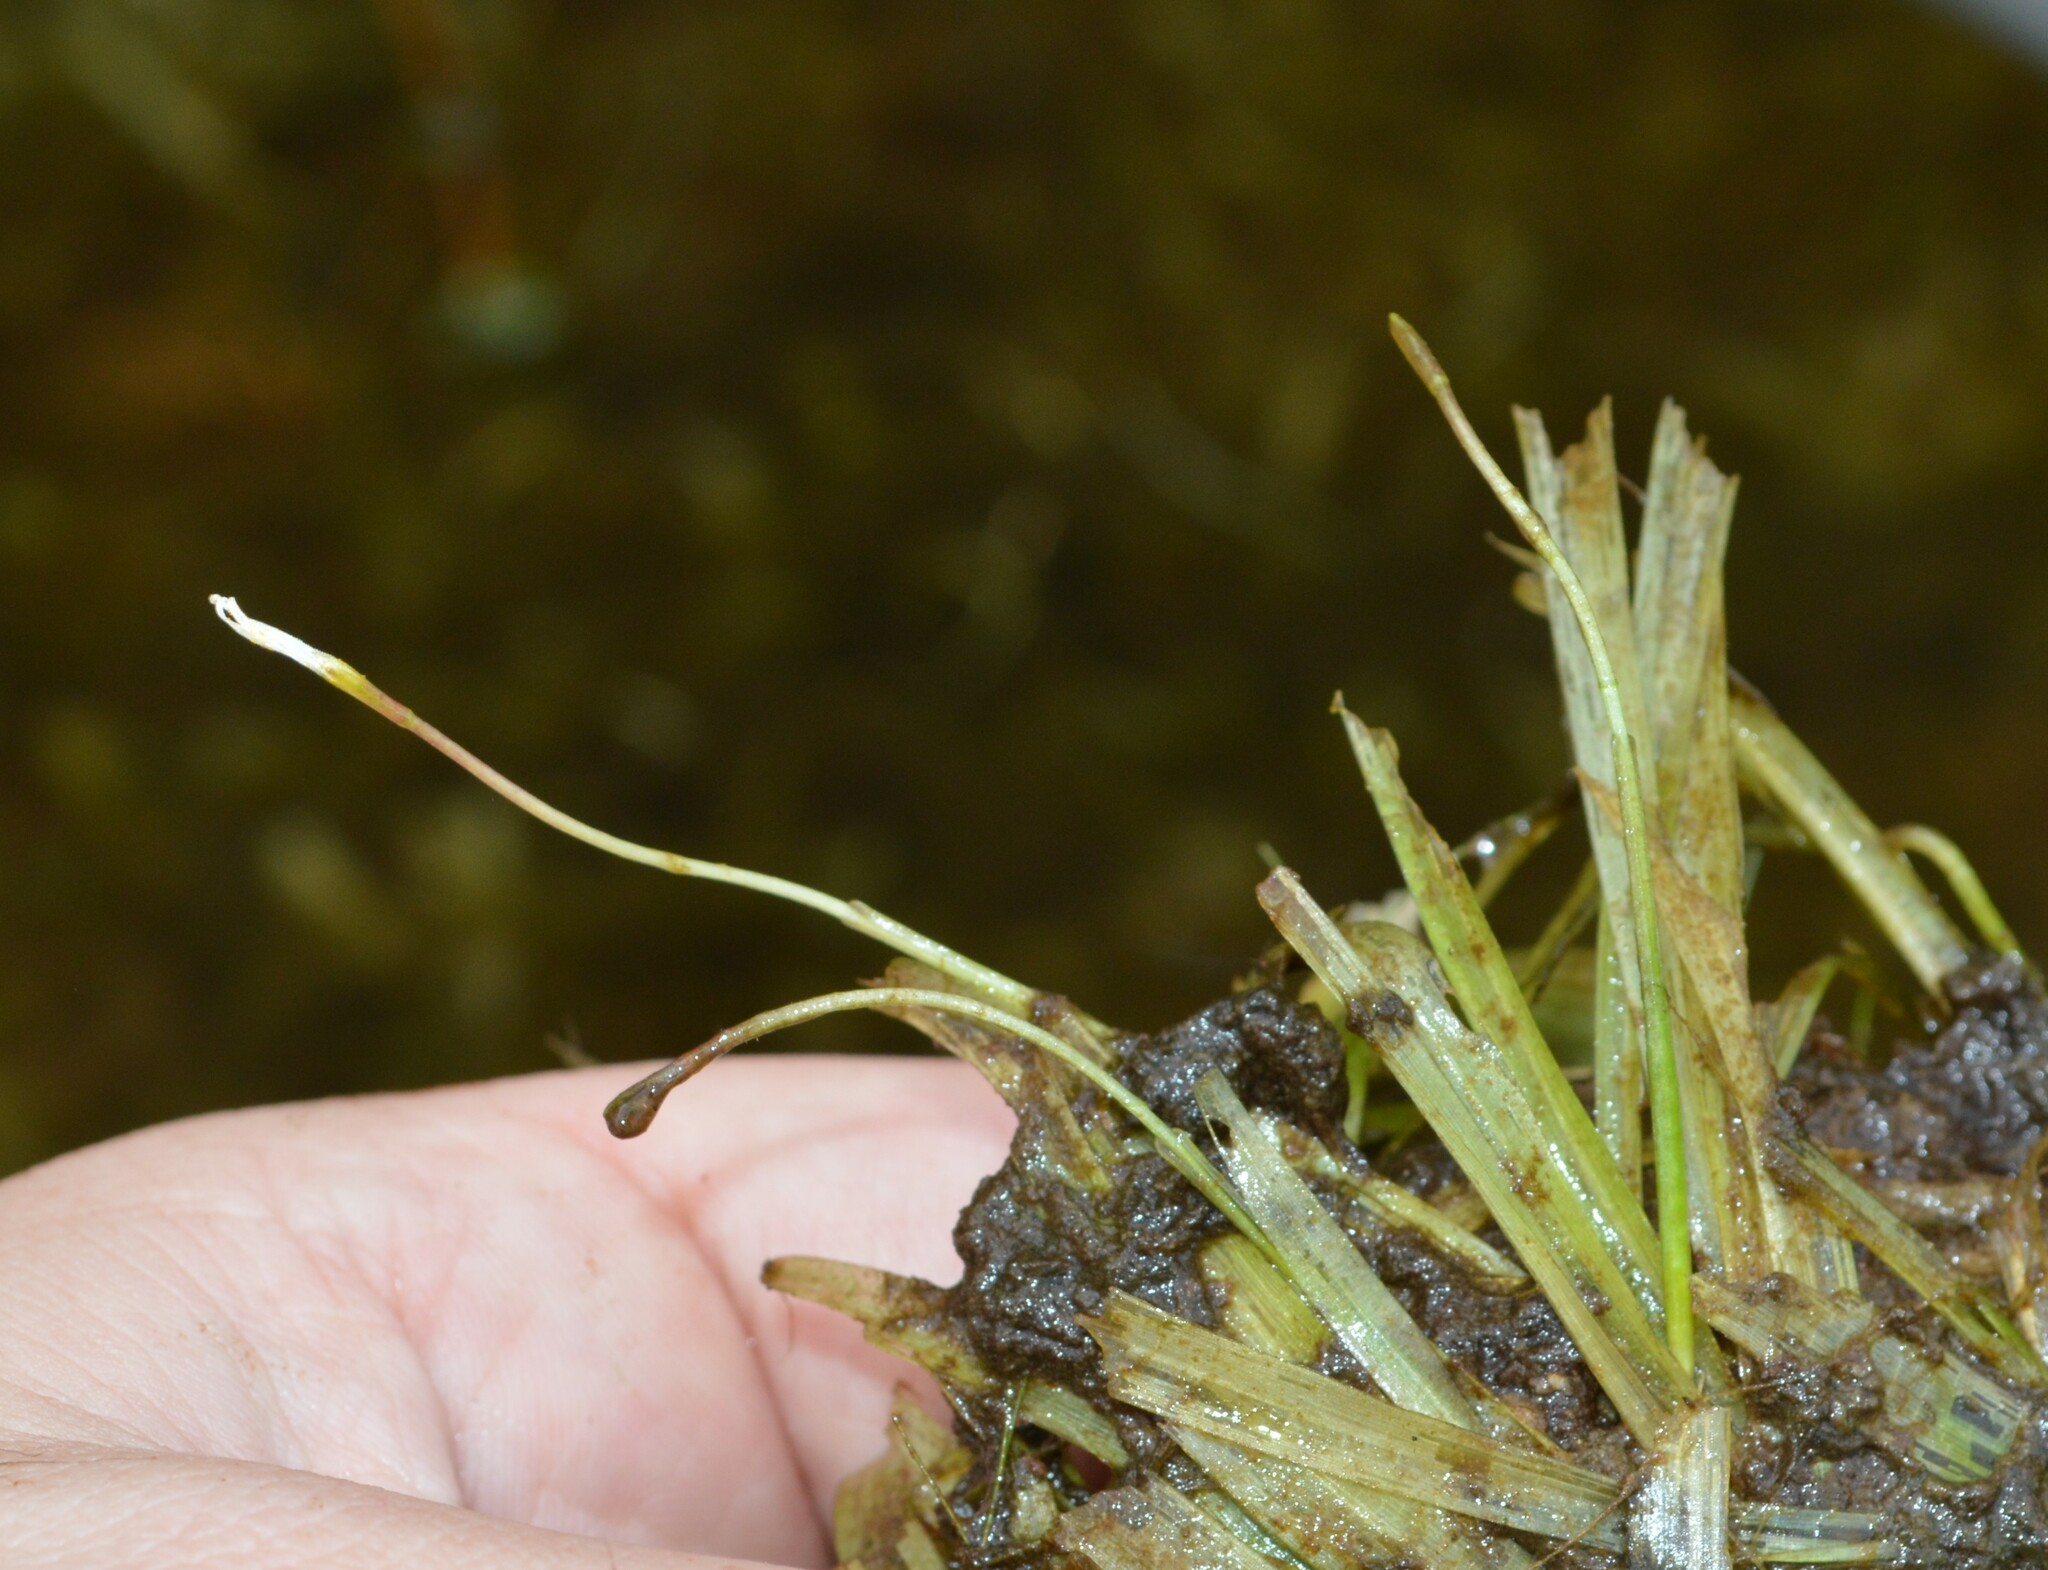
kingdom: Plantae
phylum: Tracheophyta
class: Liliopsida
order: Alismatales
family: Hydrocharitaceae
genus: Blyxa
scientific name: Blyxa aubertii
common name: Roundfruit blyxa
